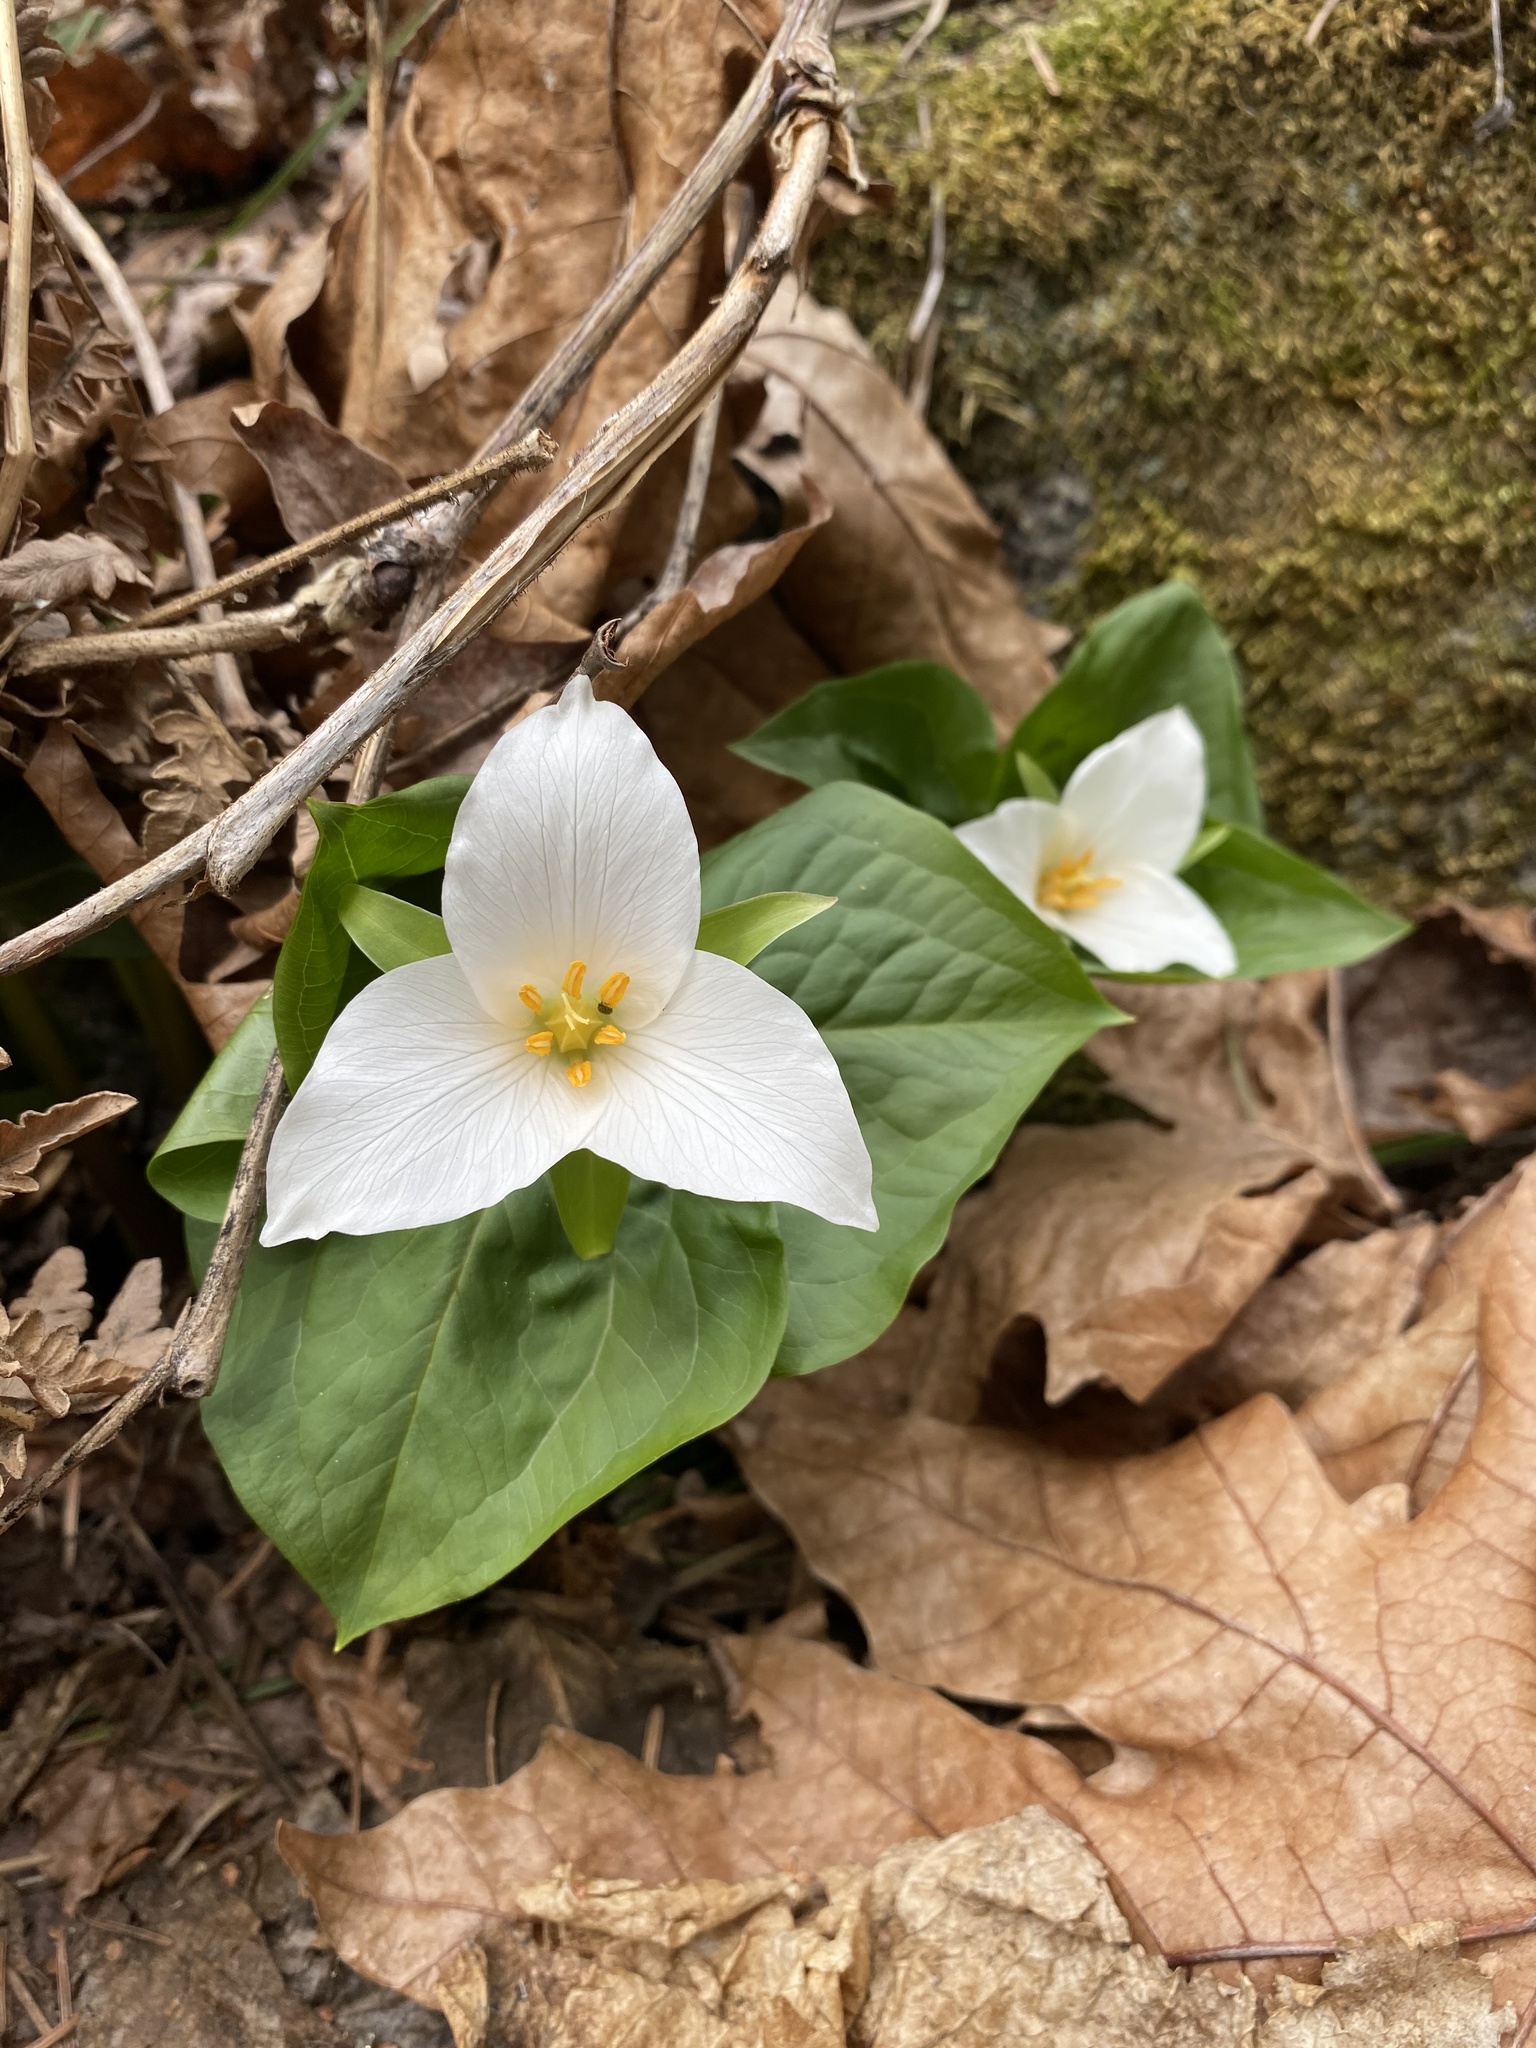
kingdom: Plantae
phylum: Tracheophyta
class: Liliopsida
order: Liliales
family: Melanthiaceae
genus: Trillium
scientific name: Trillium ovatum
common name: Pacific trillium
